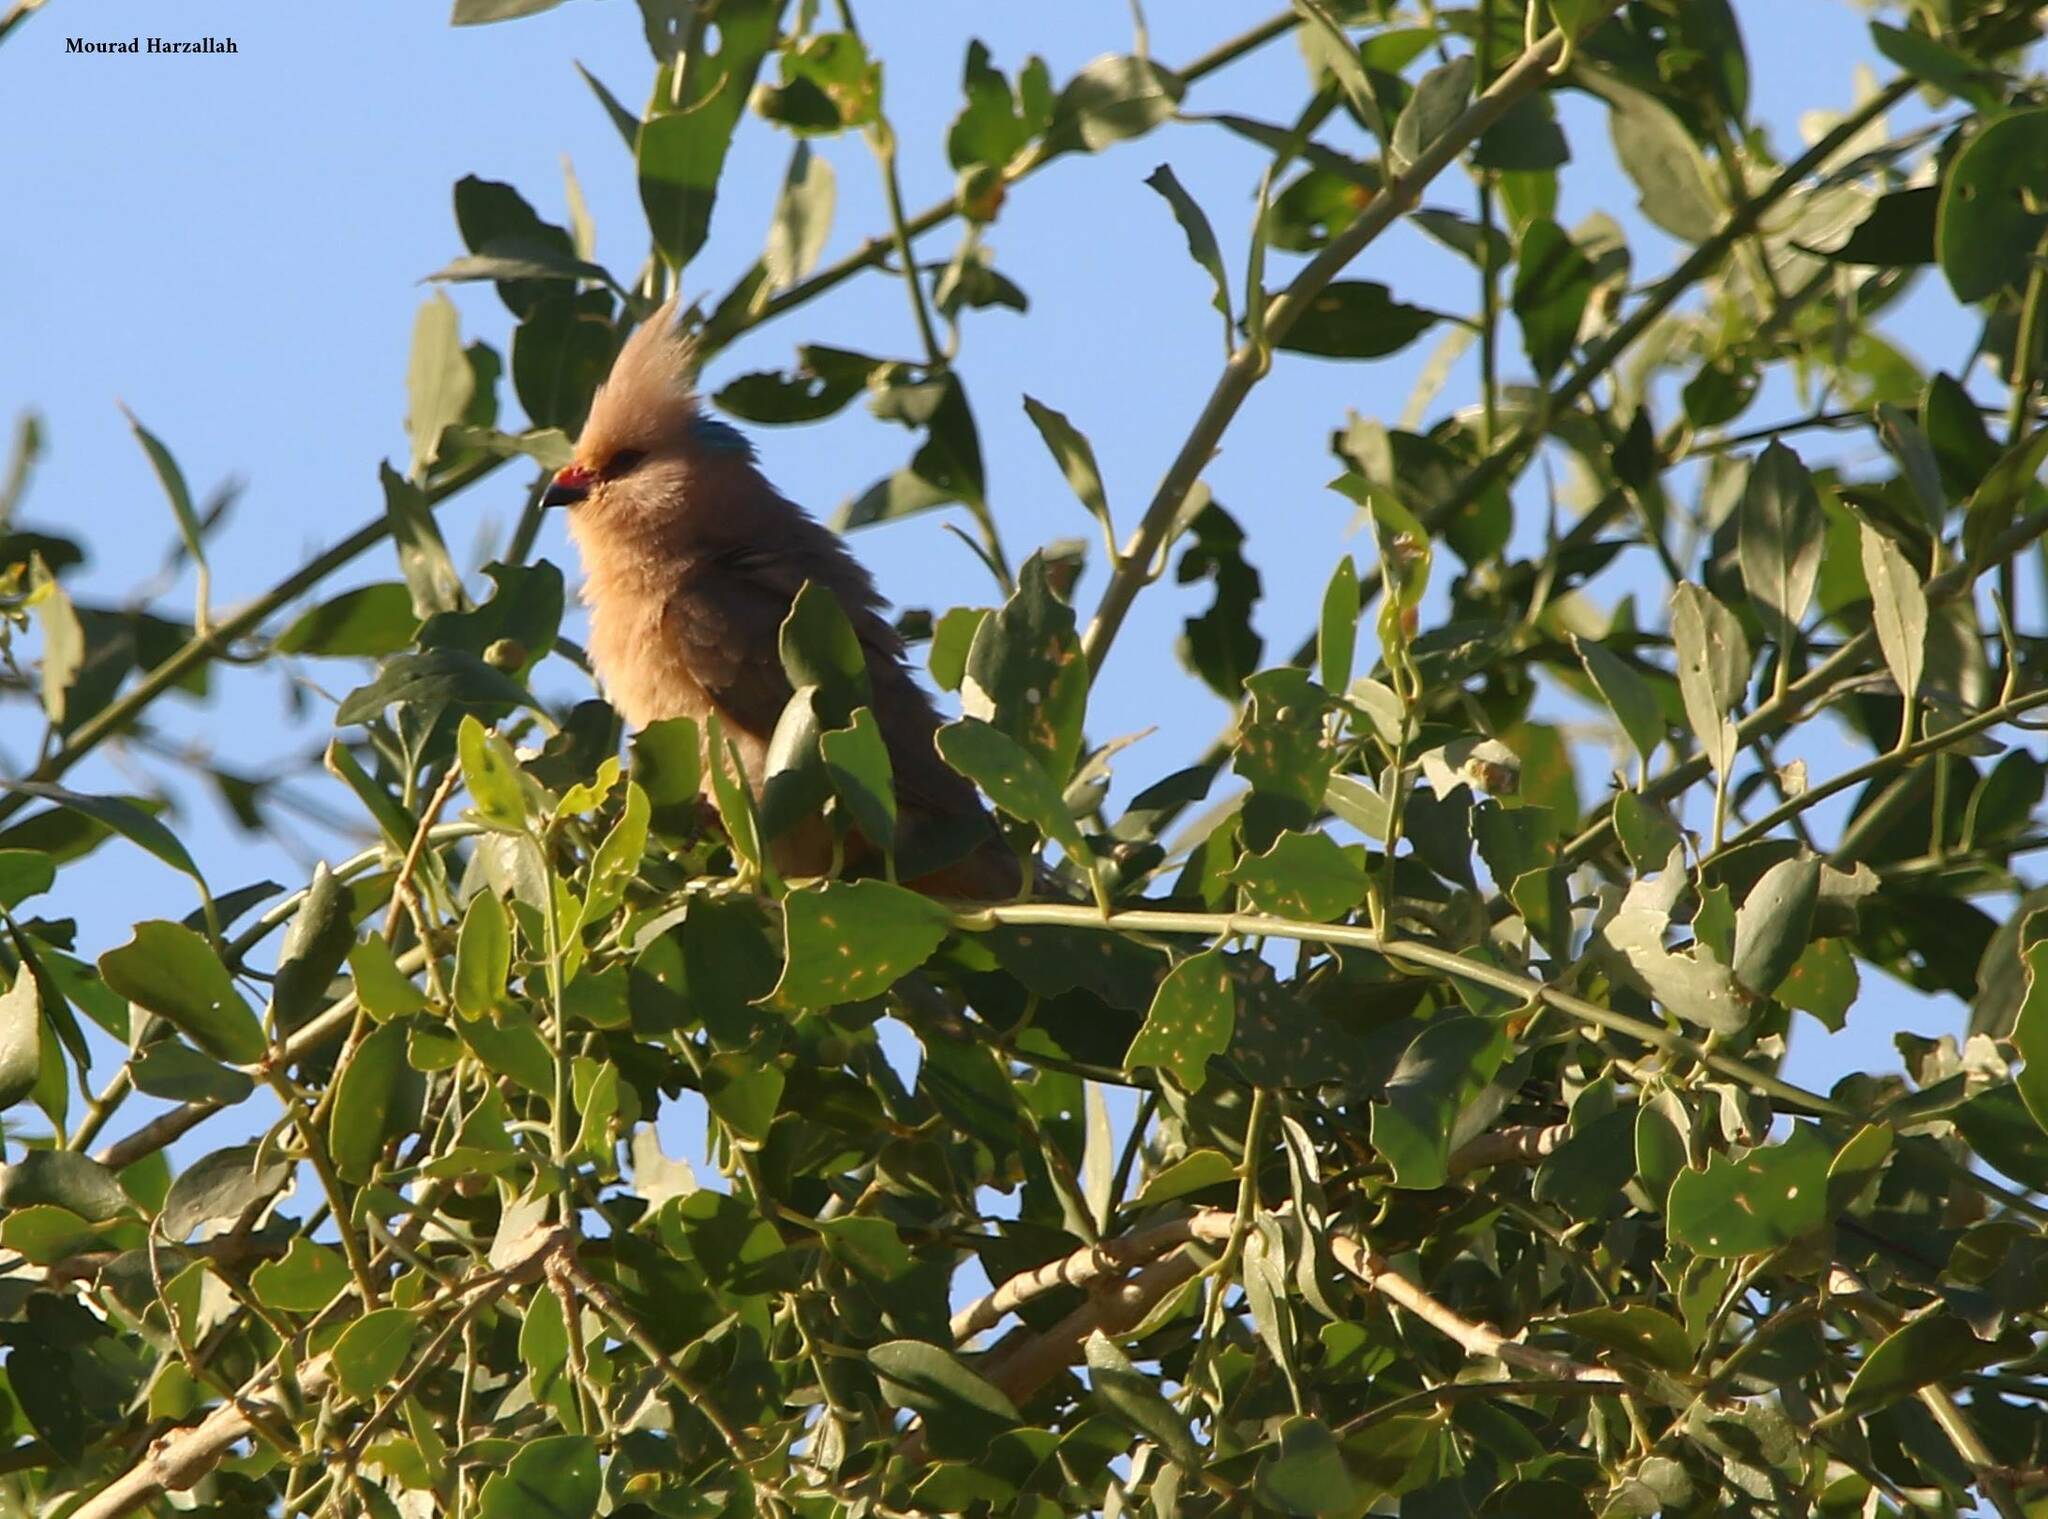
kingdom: Animalia
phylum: Chordata
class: Aves
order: Coliiformes
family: Coliidae
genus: Urocolius
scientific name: Urocolius macrourus
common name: Blue-naped mousebird
